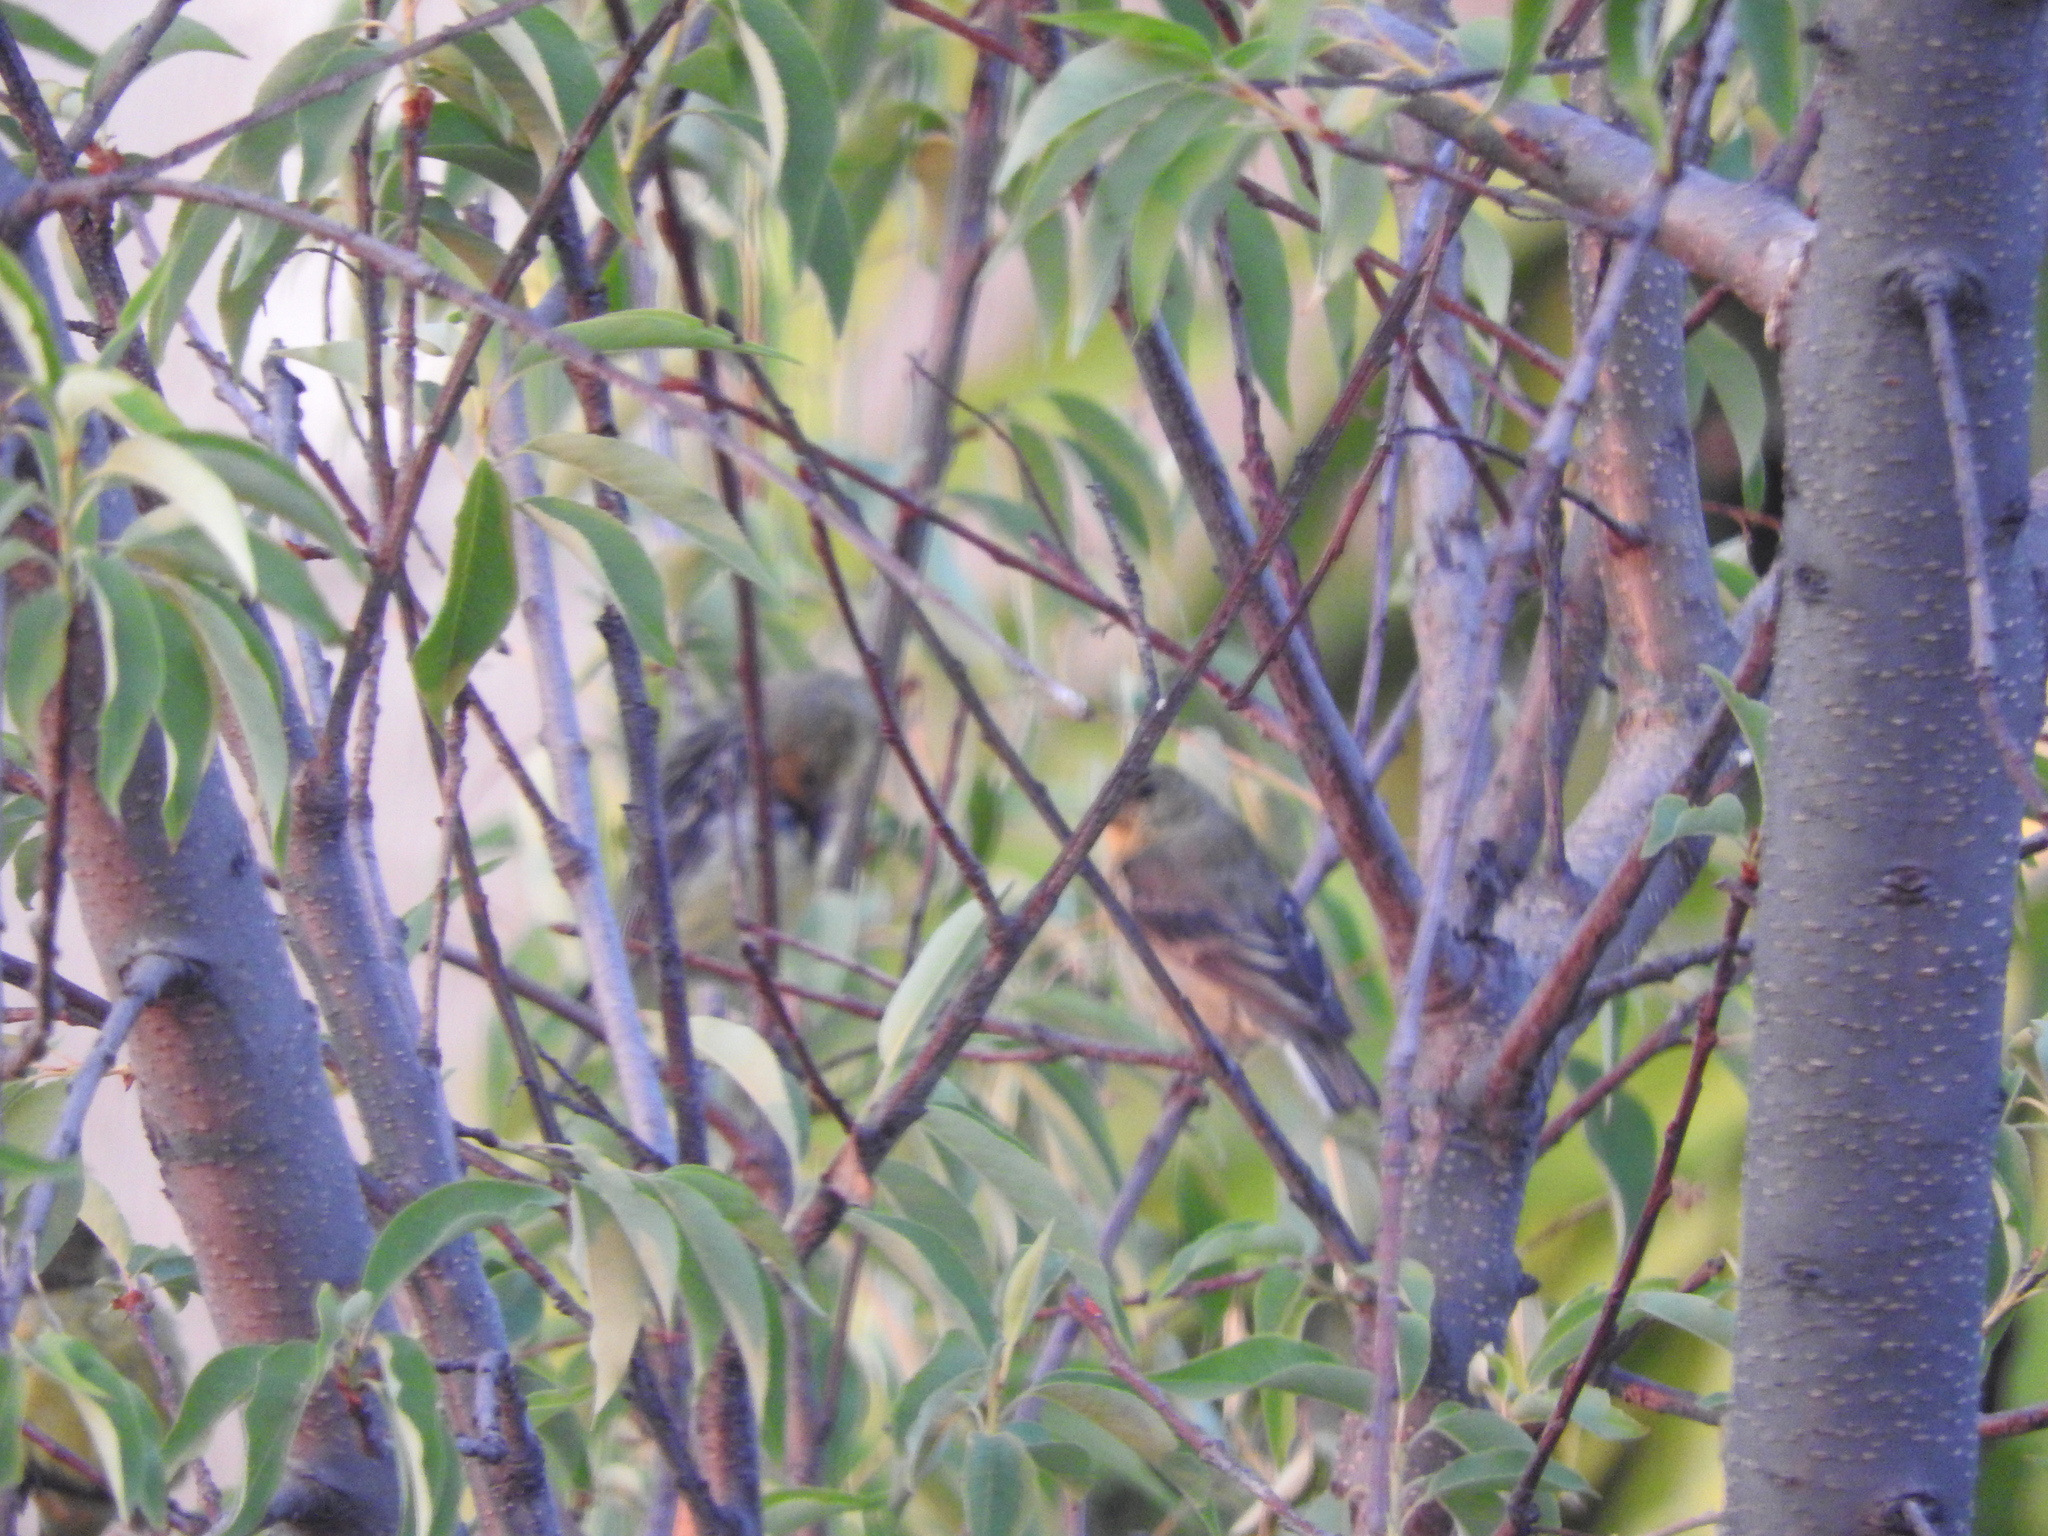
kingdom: Animalia
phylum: Chordata
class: Aves
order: Passeriformes
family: Fringillidae
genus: Spinus
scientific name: Spinus psaltria
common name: Lesser goldfinch
